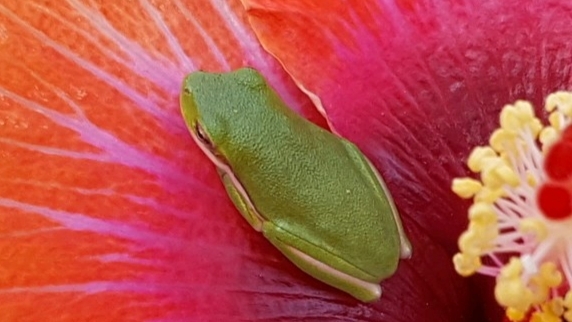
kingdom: Animalia
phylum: Chordata
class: Amphibia
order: Anura
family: Hylidae
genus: Dryophytes
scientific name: Dryophytes cinereus
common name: Green treefrog
